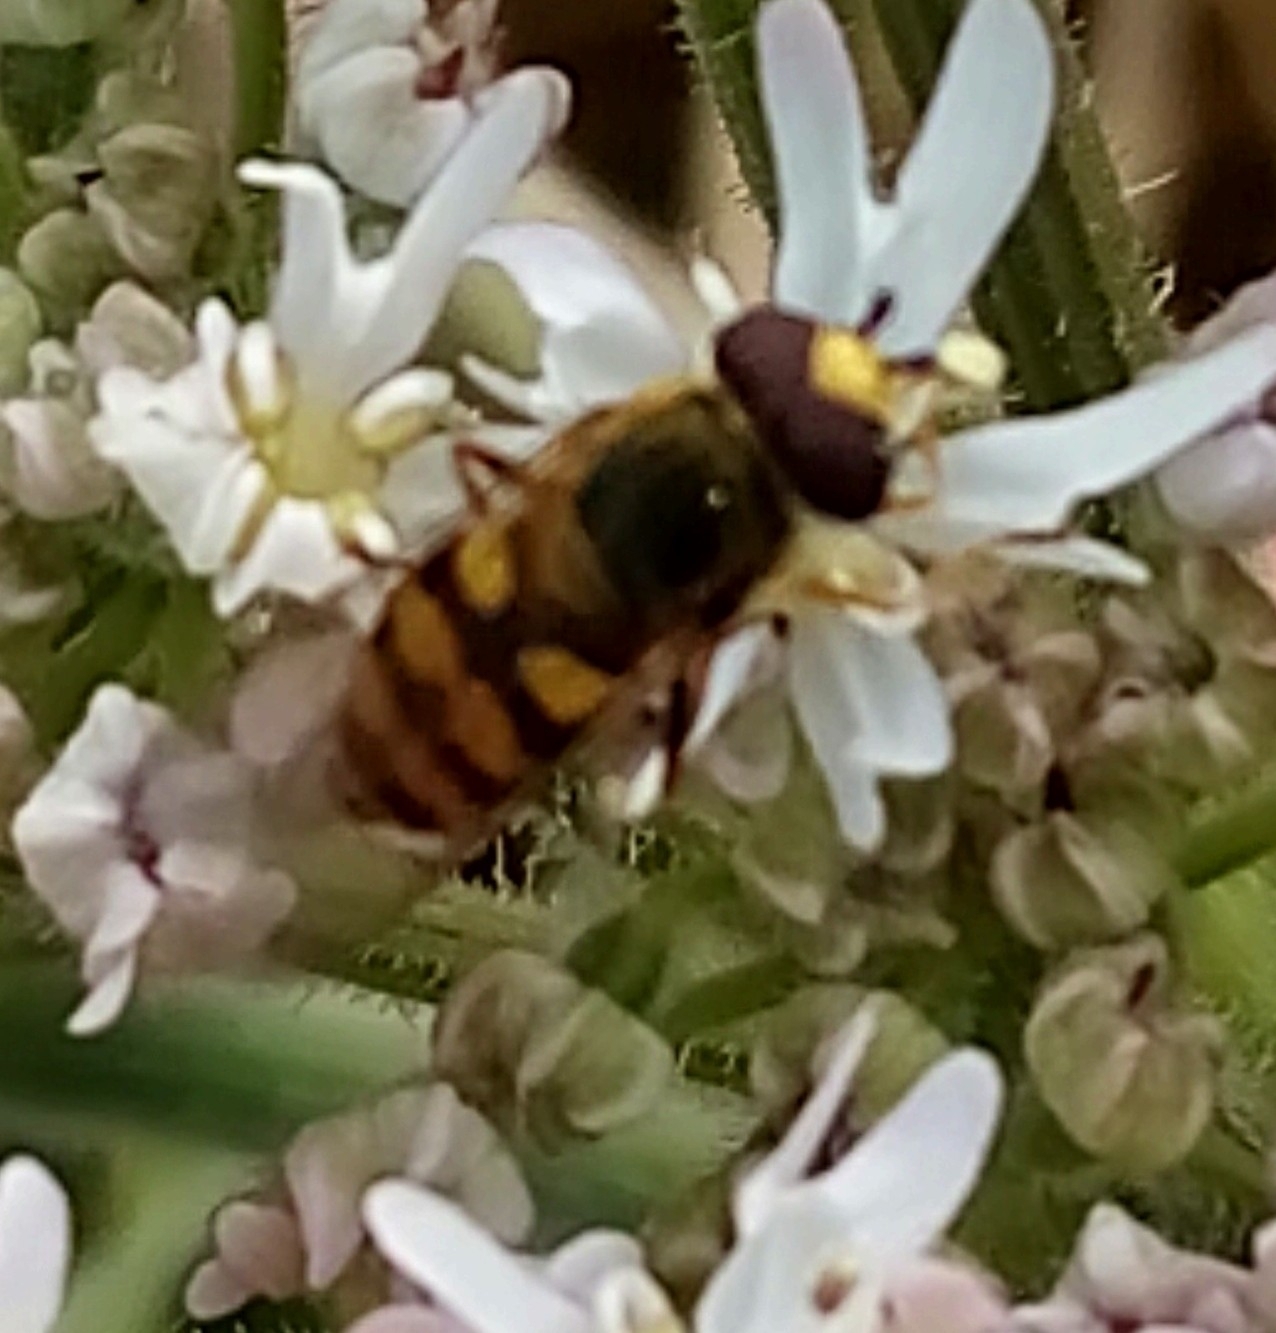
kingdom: Animalia
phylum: Arthropoda
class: Insecta
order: Diptera
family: Syrphidae
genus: Eupeodes
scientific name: Eupeodes
